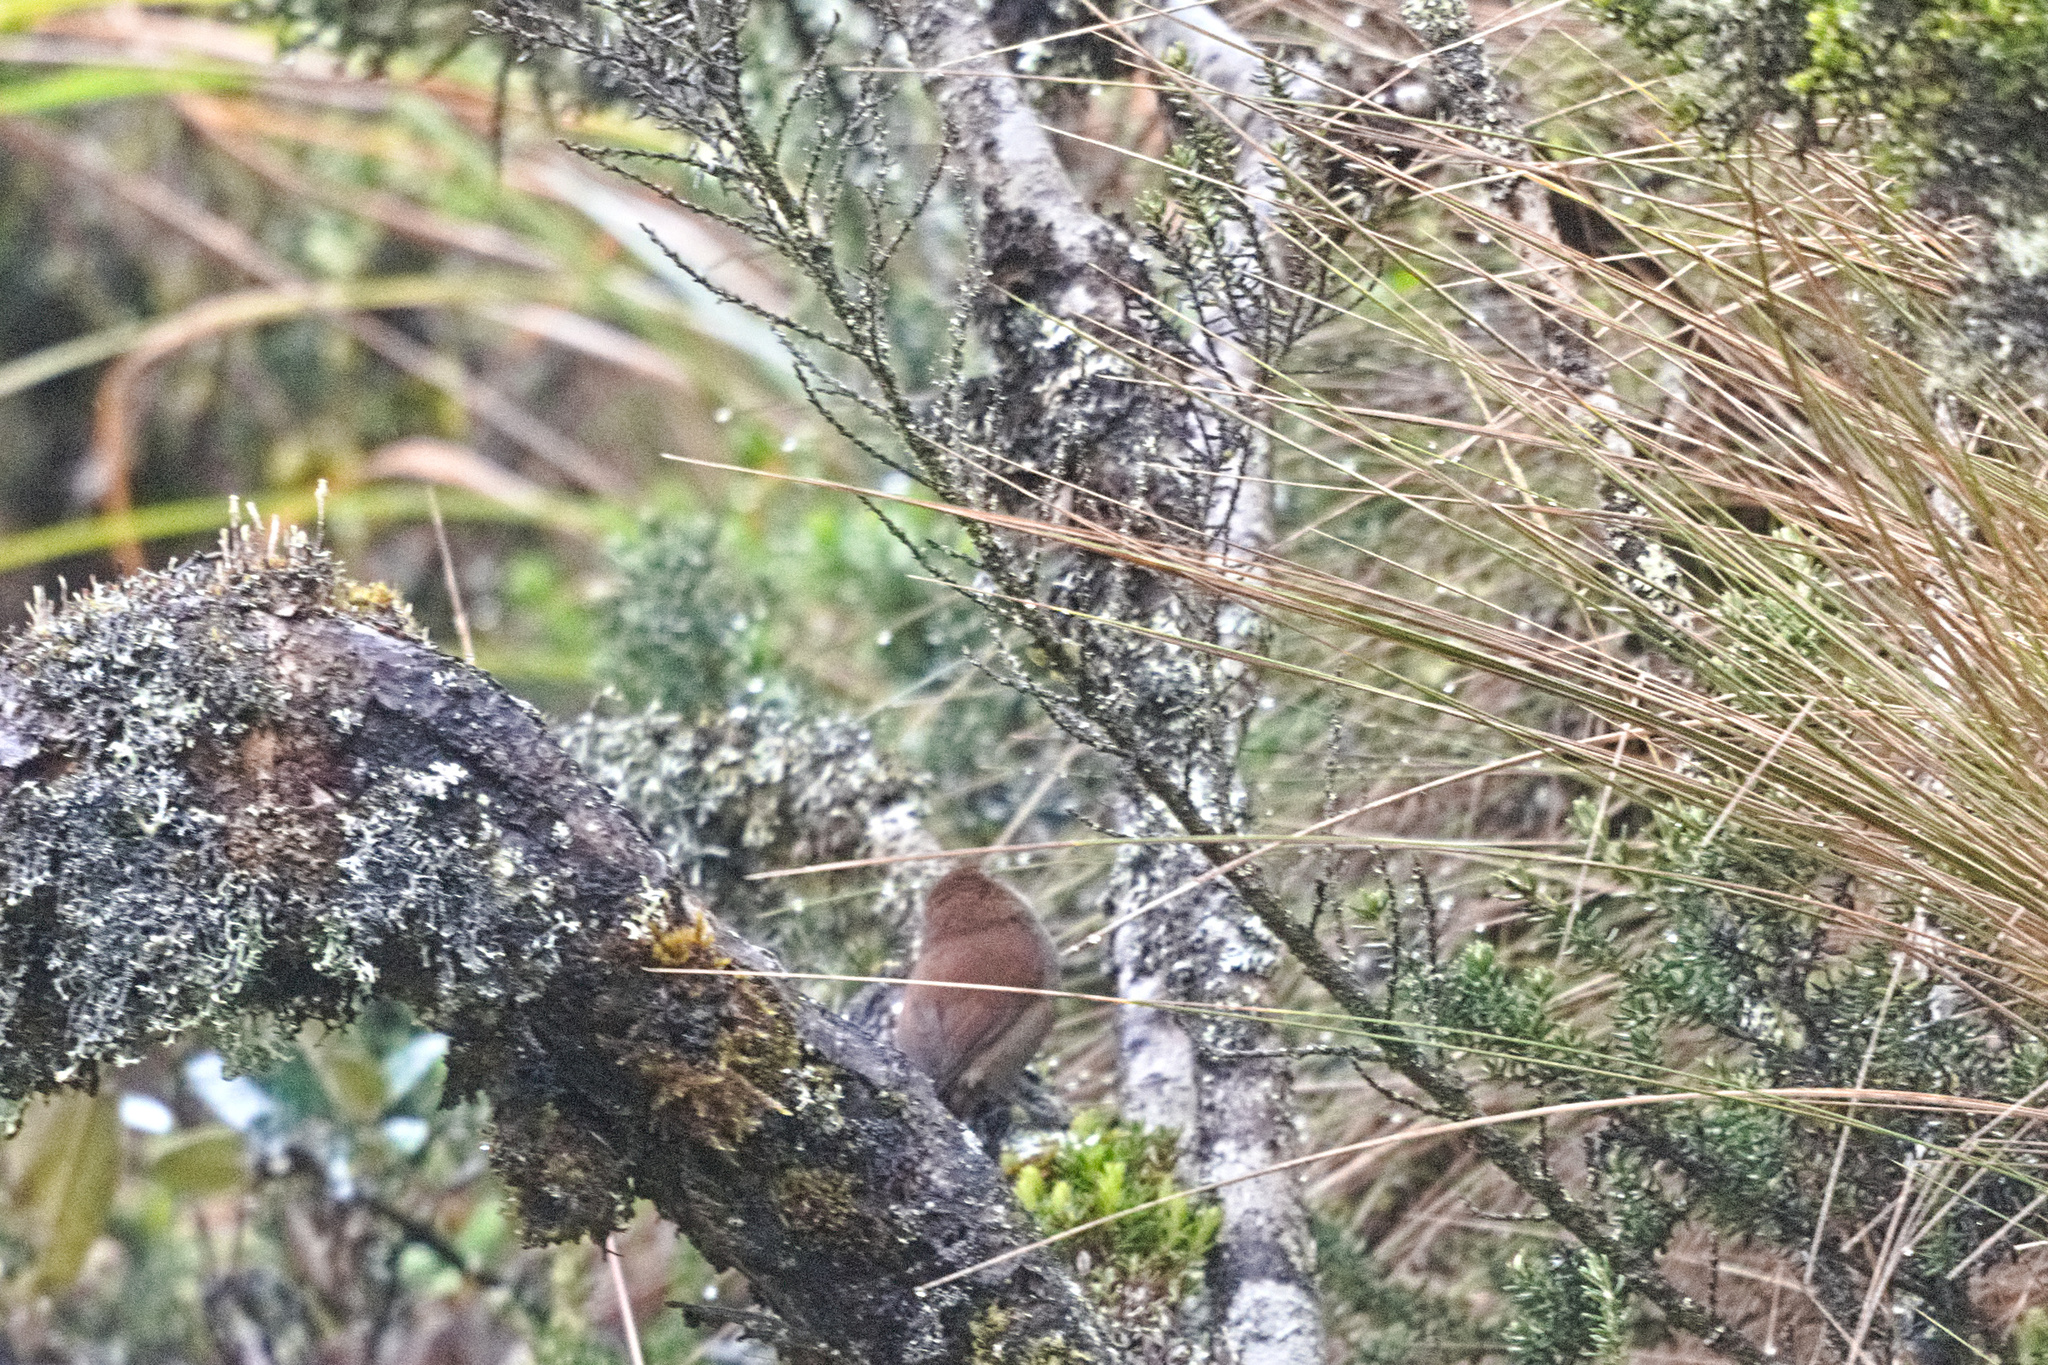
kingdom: Animalia
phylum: Chordata
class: Aves
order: Passeriformes
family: Furnariidae
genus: Schizoeaca
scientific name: Schizoeaca fuliginosa
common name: White-chinned thistletail
